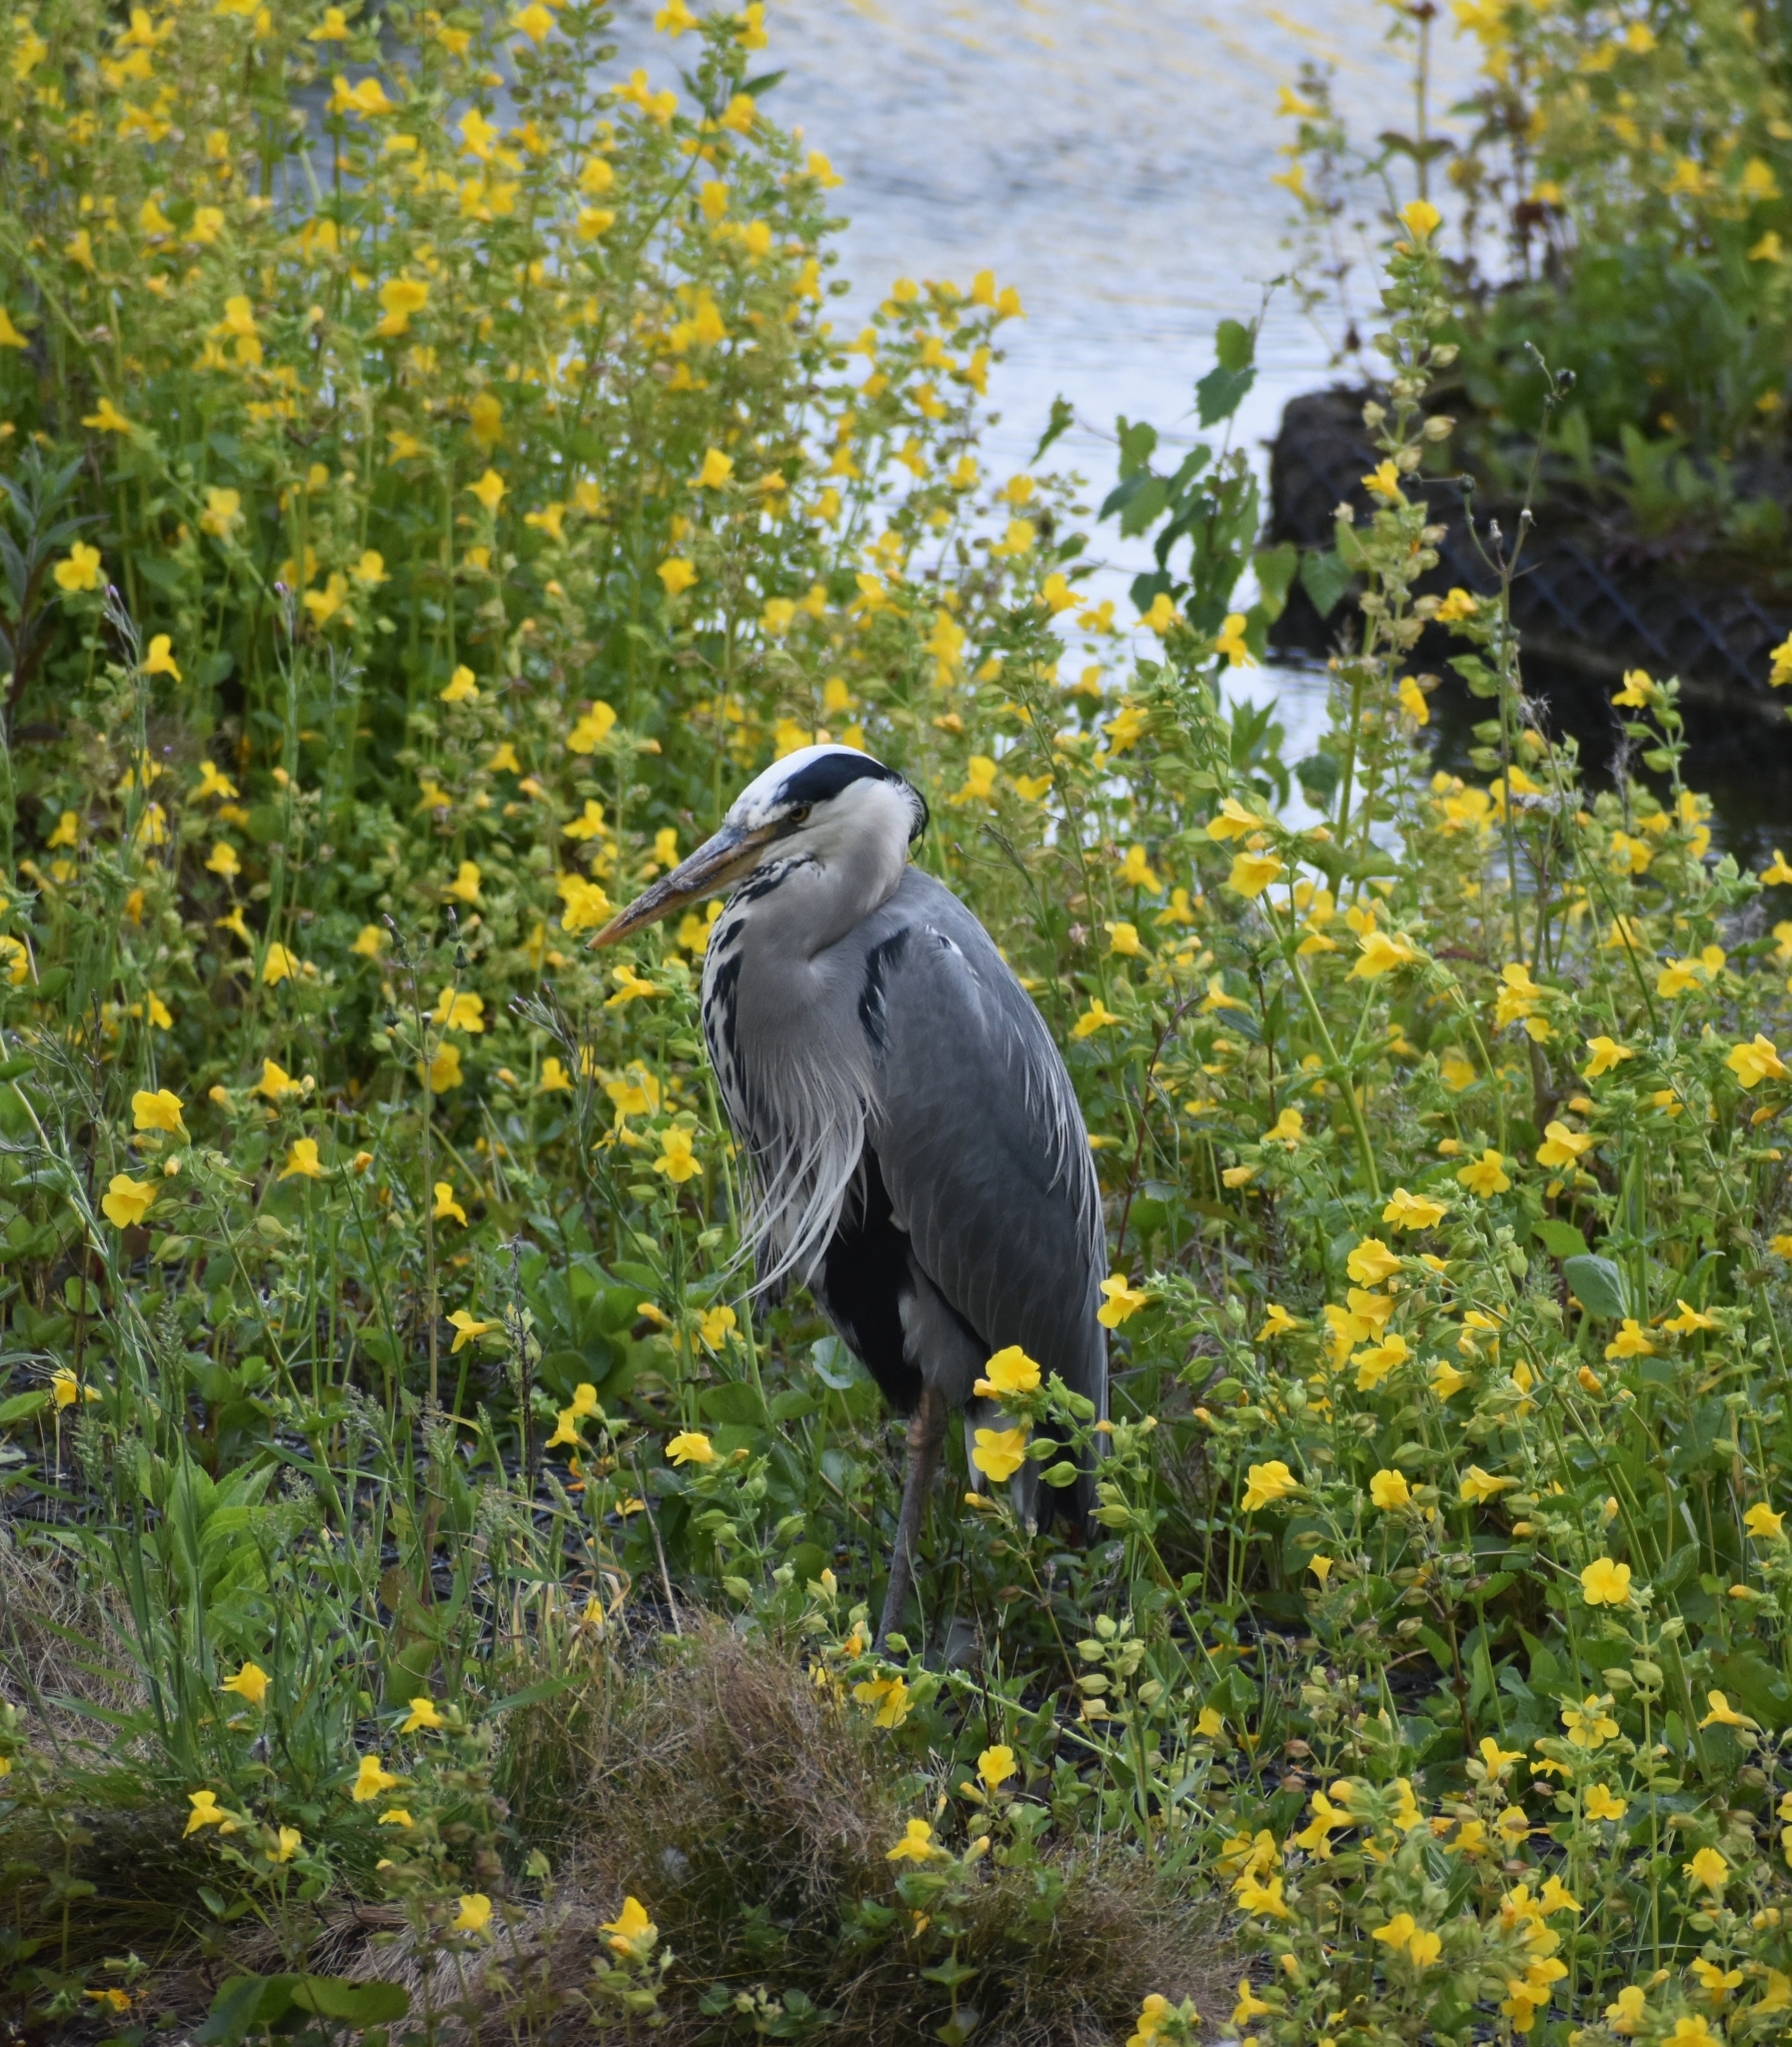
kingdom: Animalia
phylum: Chordata
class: Aves
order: Pelecaniformes
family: Ardeidae
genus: Ardea
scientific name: Ardea cinerea
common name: Grey heron
